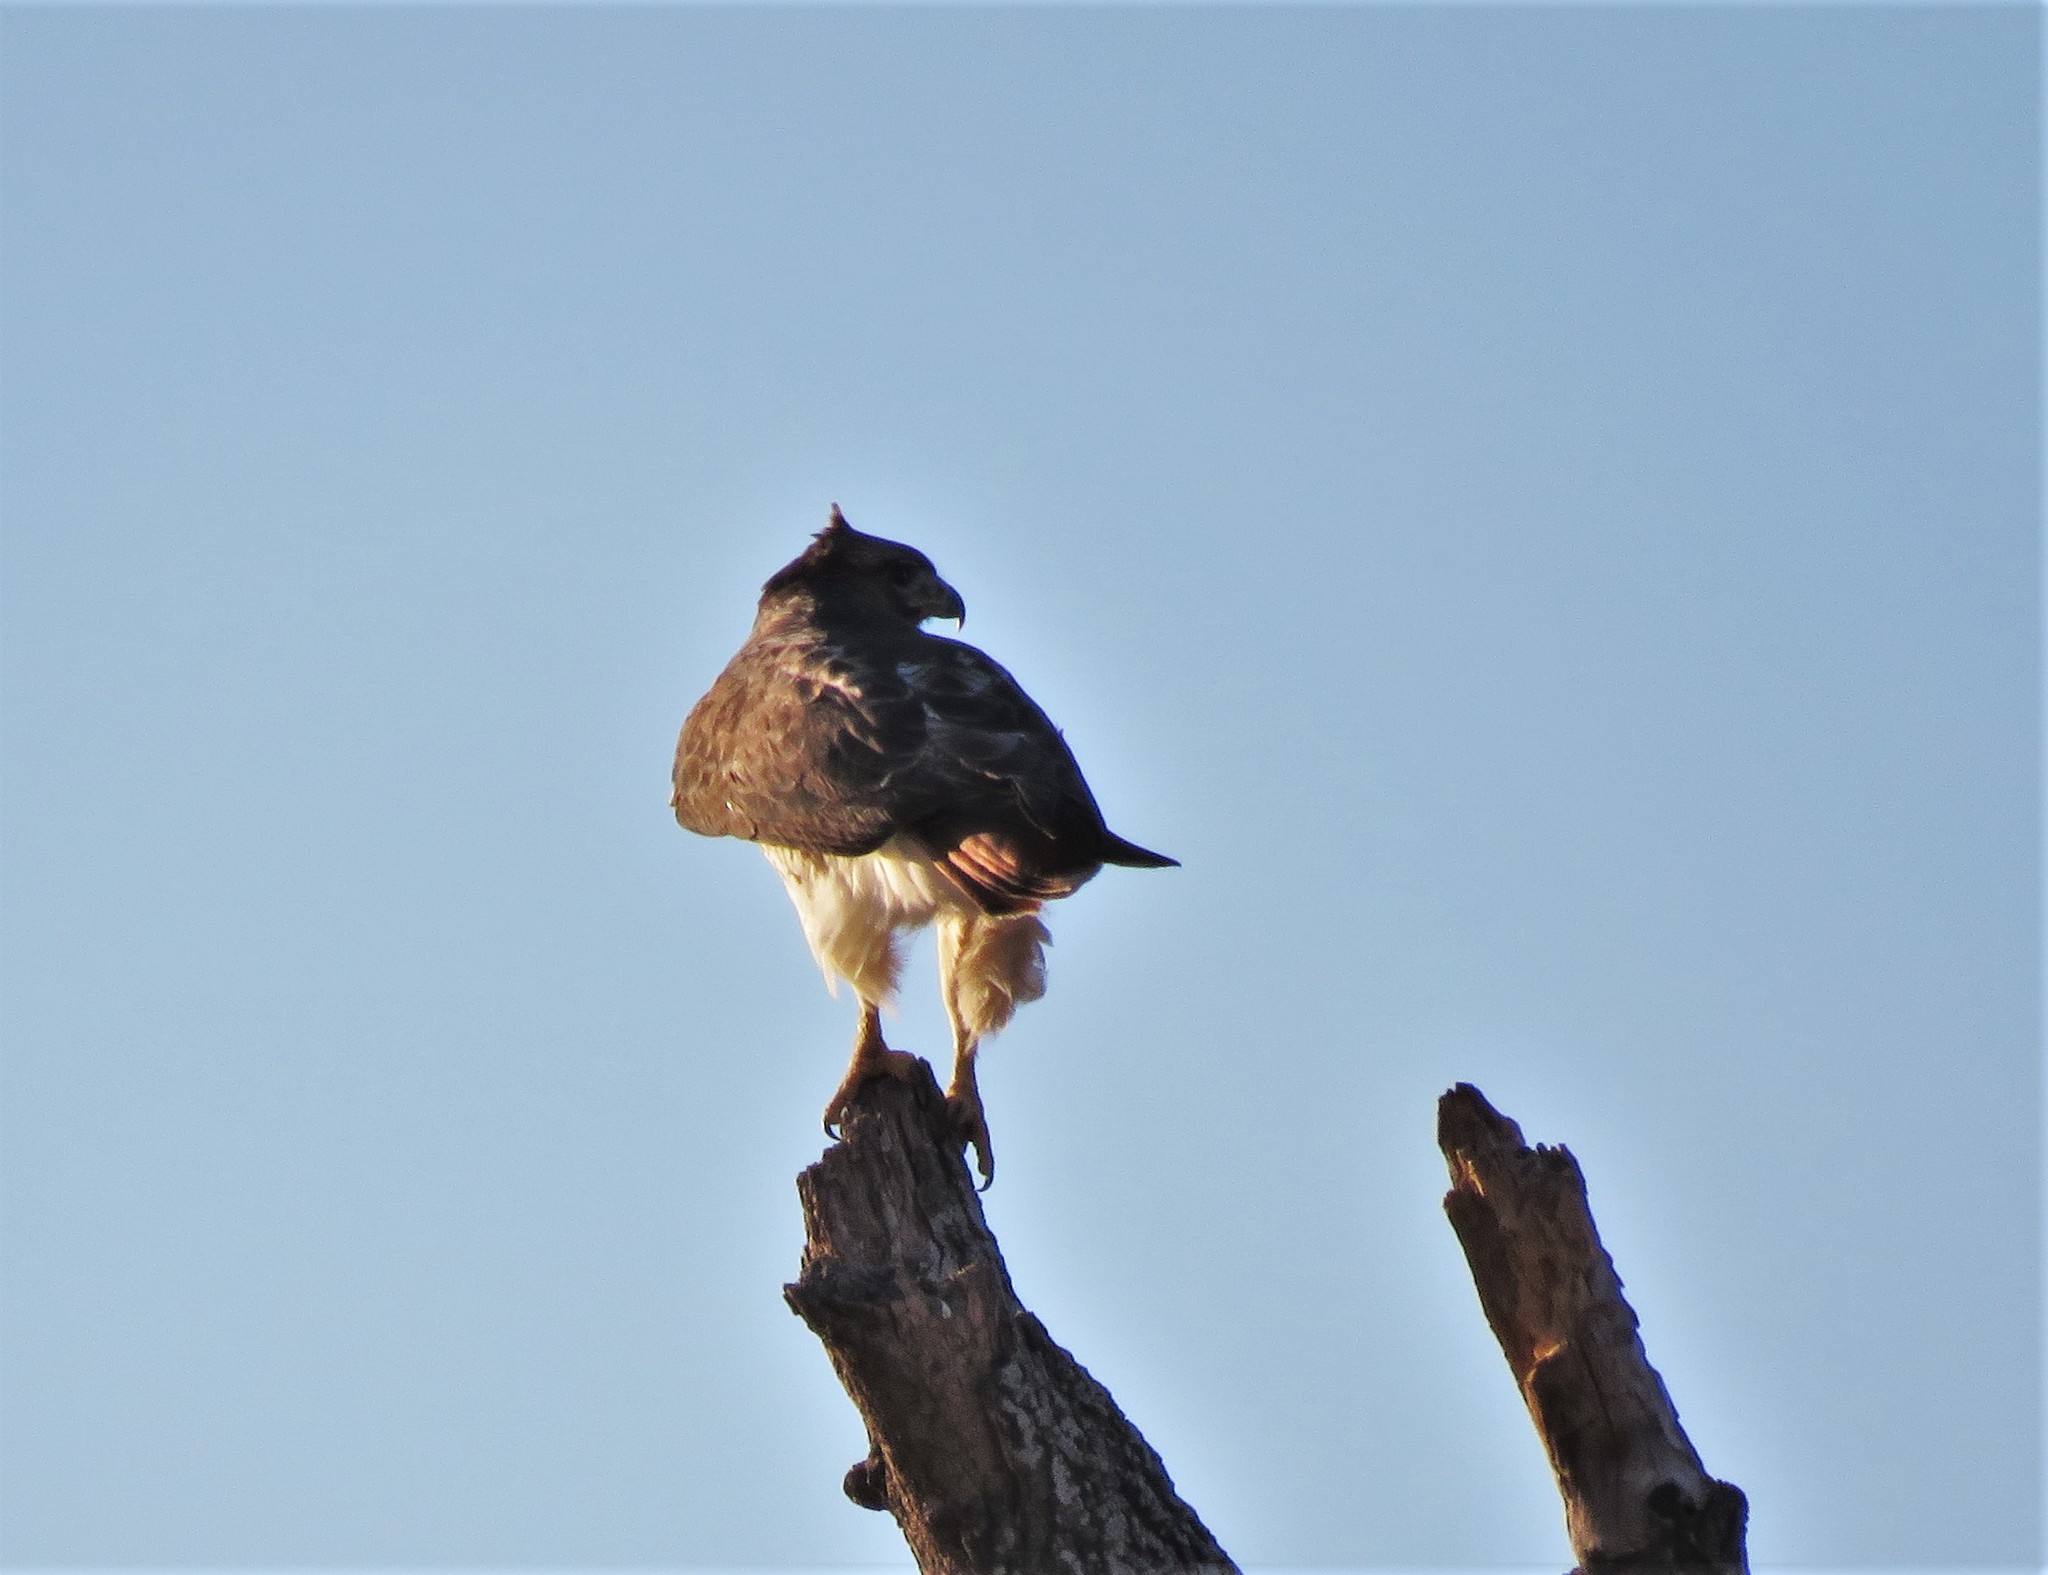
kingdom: Animalia
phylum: Chordata
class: Aves
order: Accipitriformes
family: Accipitridae
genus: Buteo
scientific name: Buteo jamaicensis
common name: Red-tailed hawk
